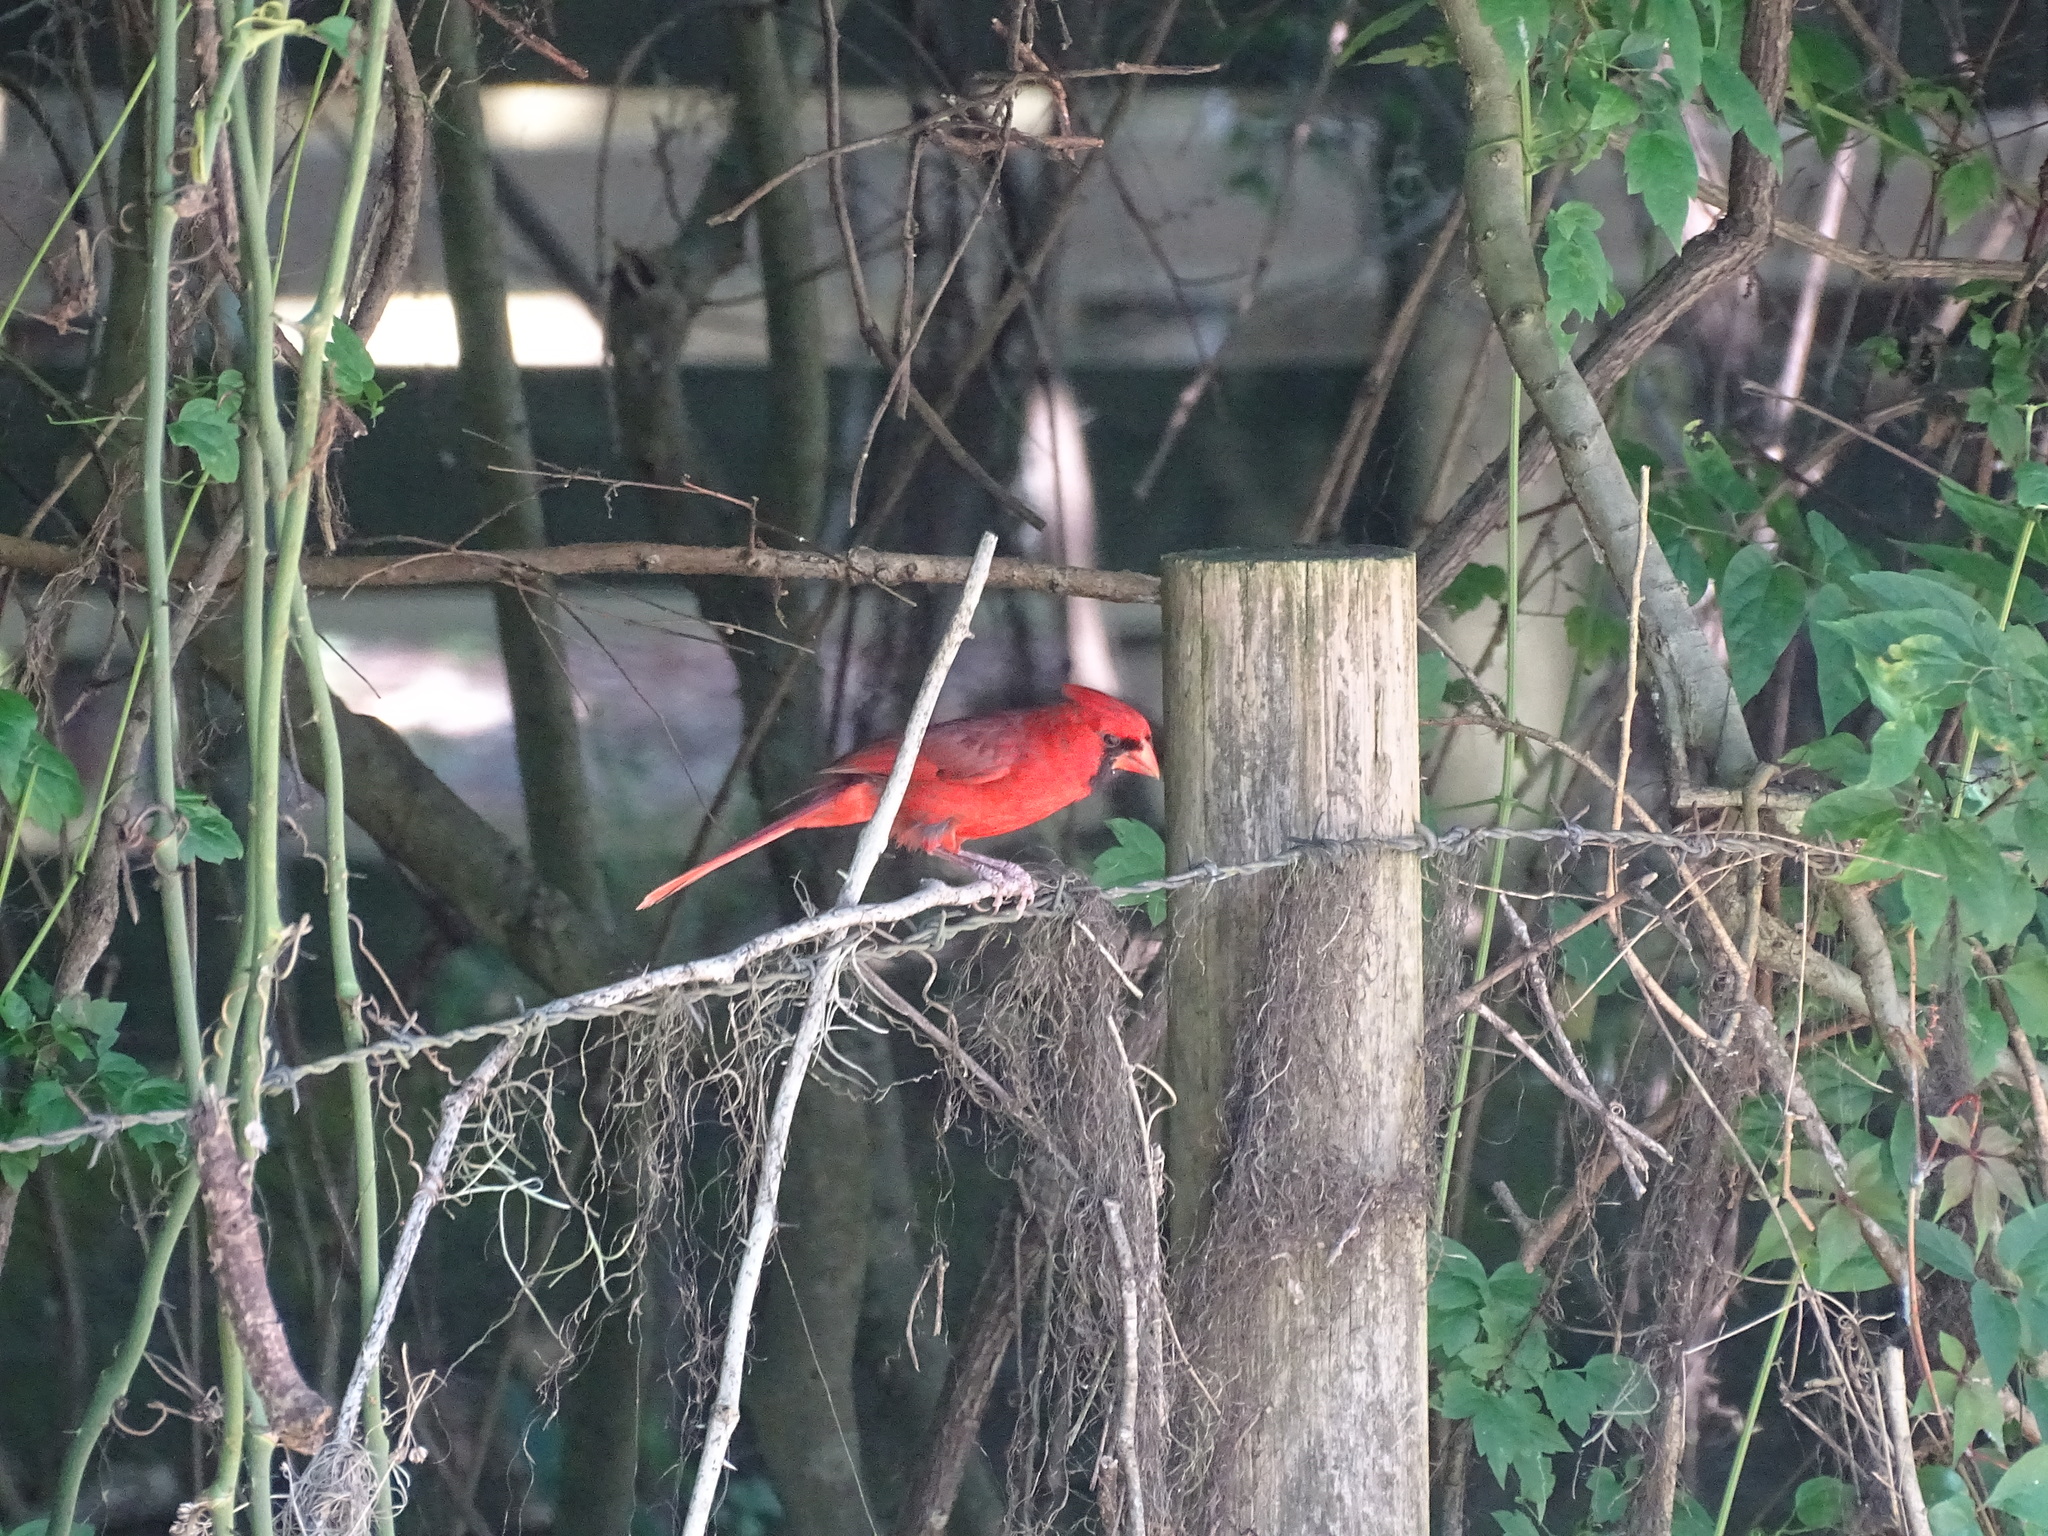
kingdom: Animalia
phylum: Chordata
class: Aves
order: Passeriformes
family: Cardinalidae
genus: Cardinalis
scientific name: Cardinalis cardinalis
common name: Northern cardinal
